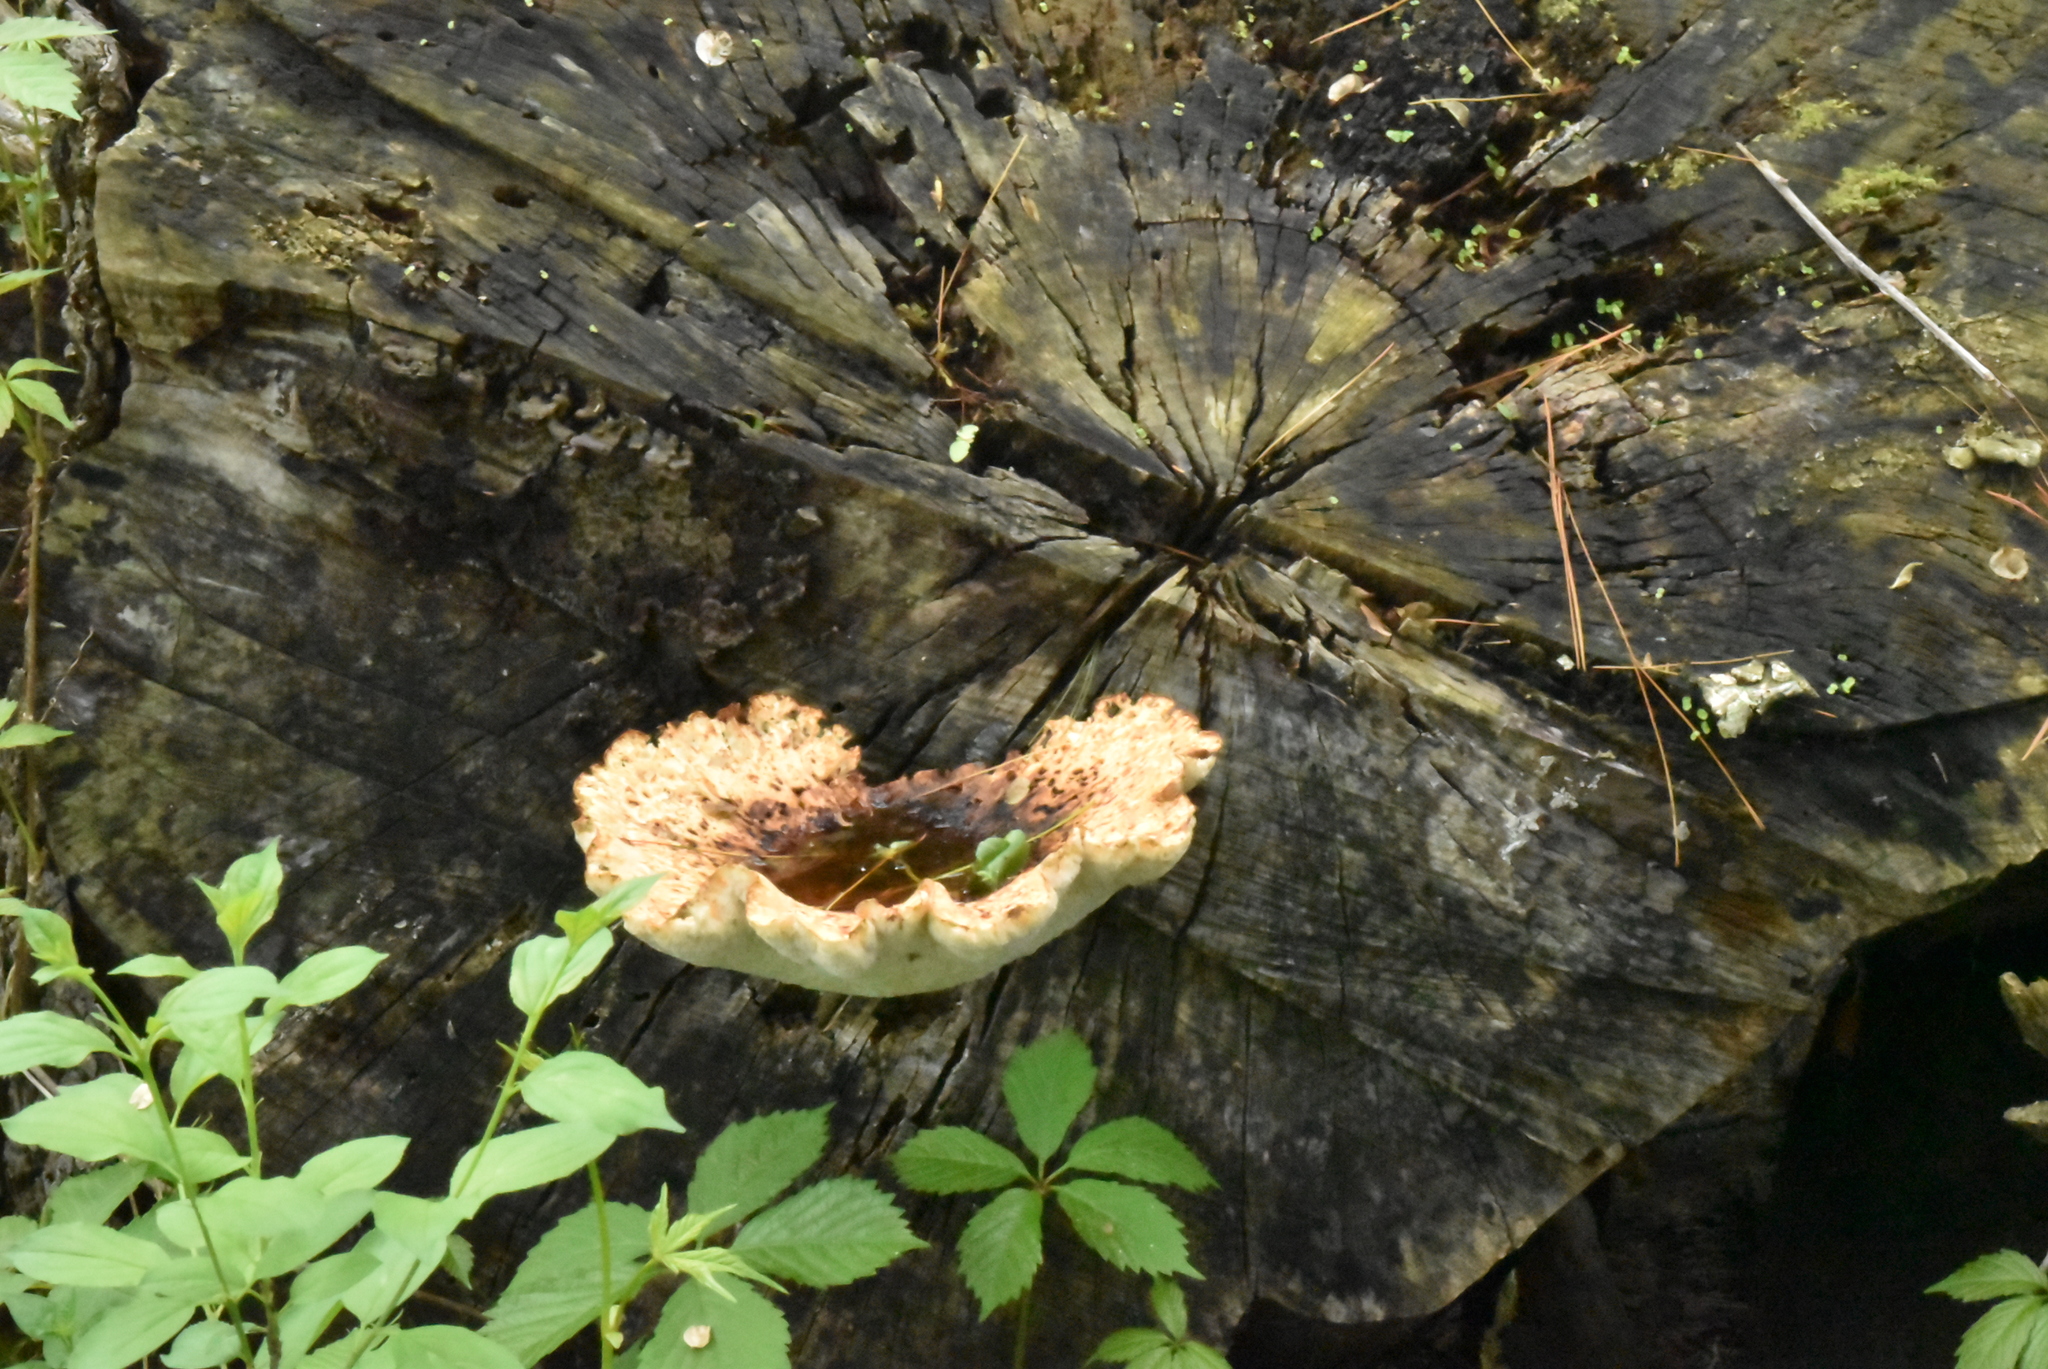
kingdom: Fungi
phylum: Basidiomycota
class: Agaricomycetes
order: Polyporales
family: Polyporaceae
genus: Cerioporus
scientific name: Cerioporus squamosus
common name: Dryad's saddle
